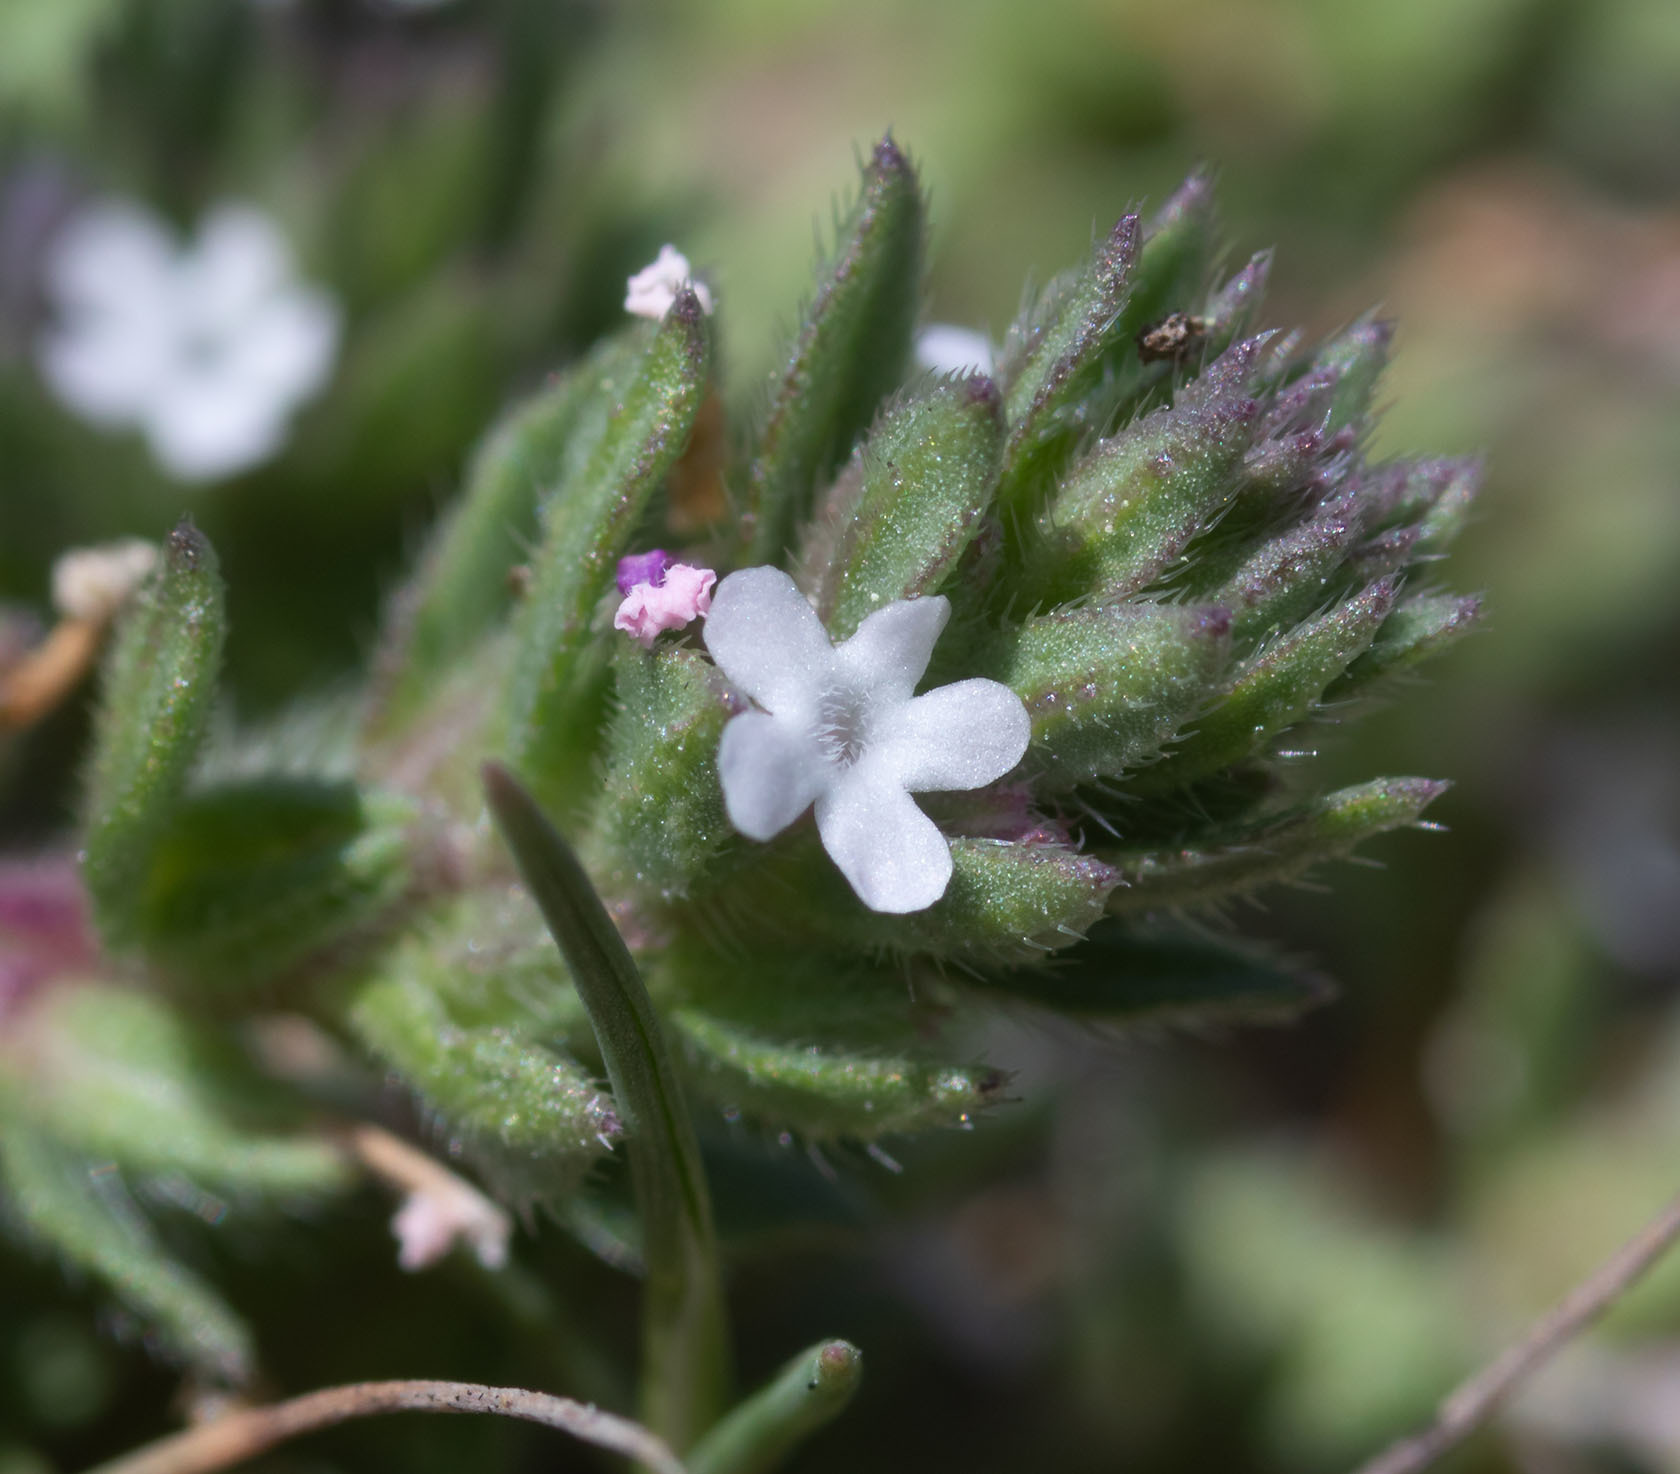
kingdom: Plantae
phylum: Tracheophyta
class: Magnoliopsida
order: Lamiales
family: Verbenaceae
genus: Verbena
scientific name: Verbena bracteata
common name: Bracted vervain
